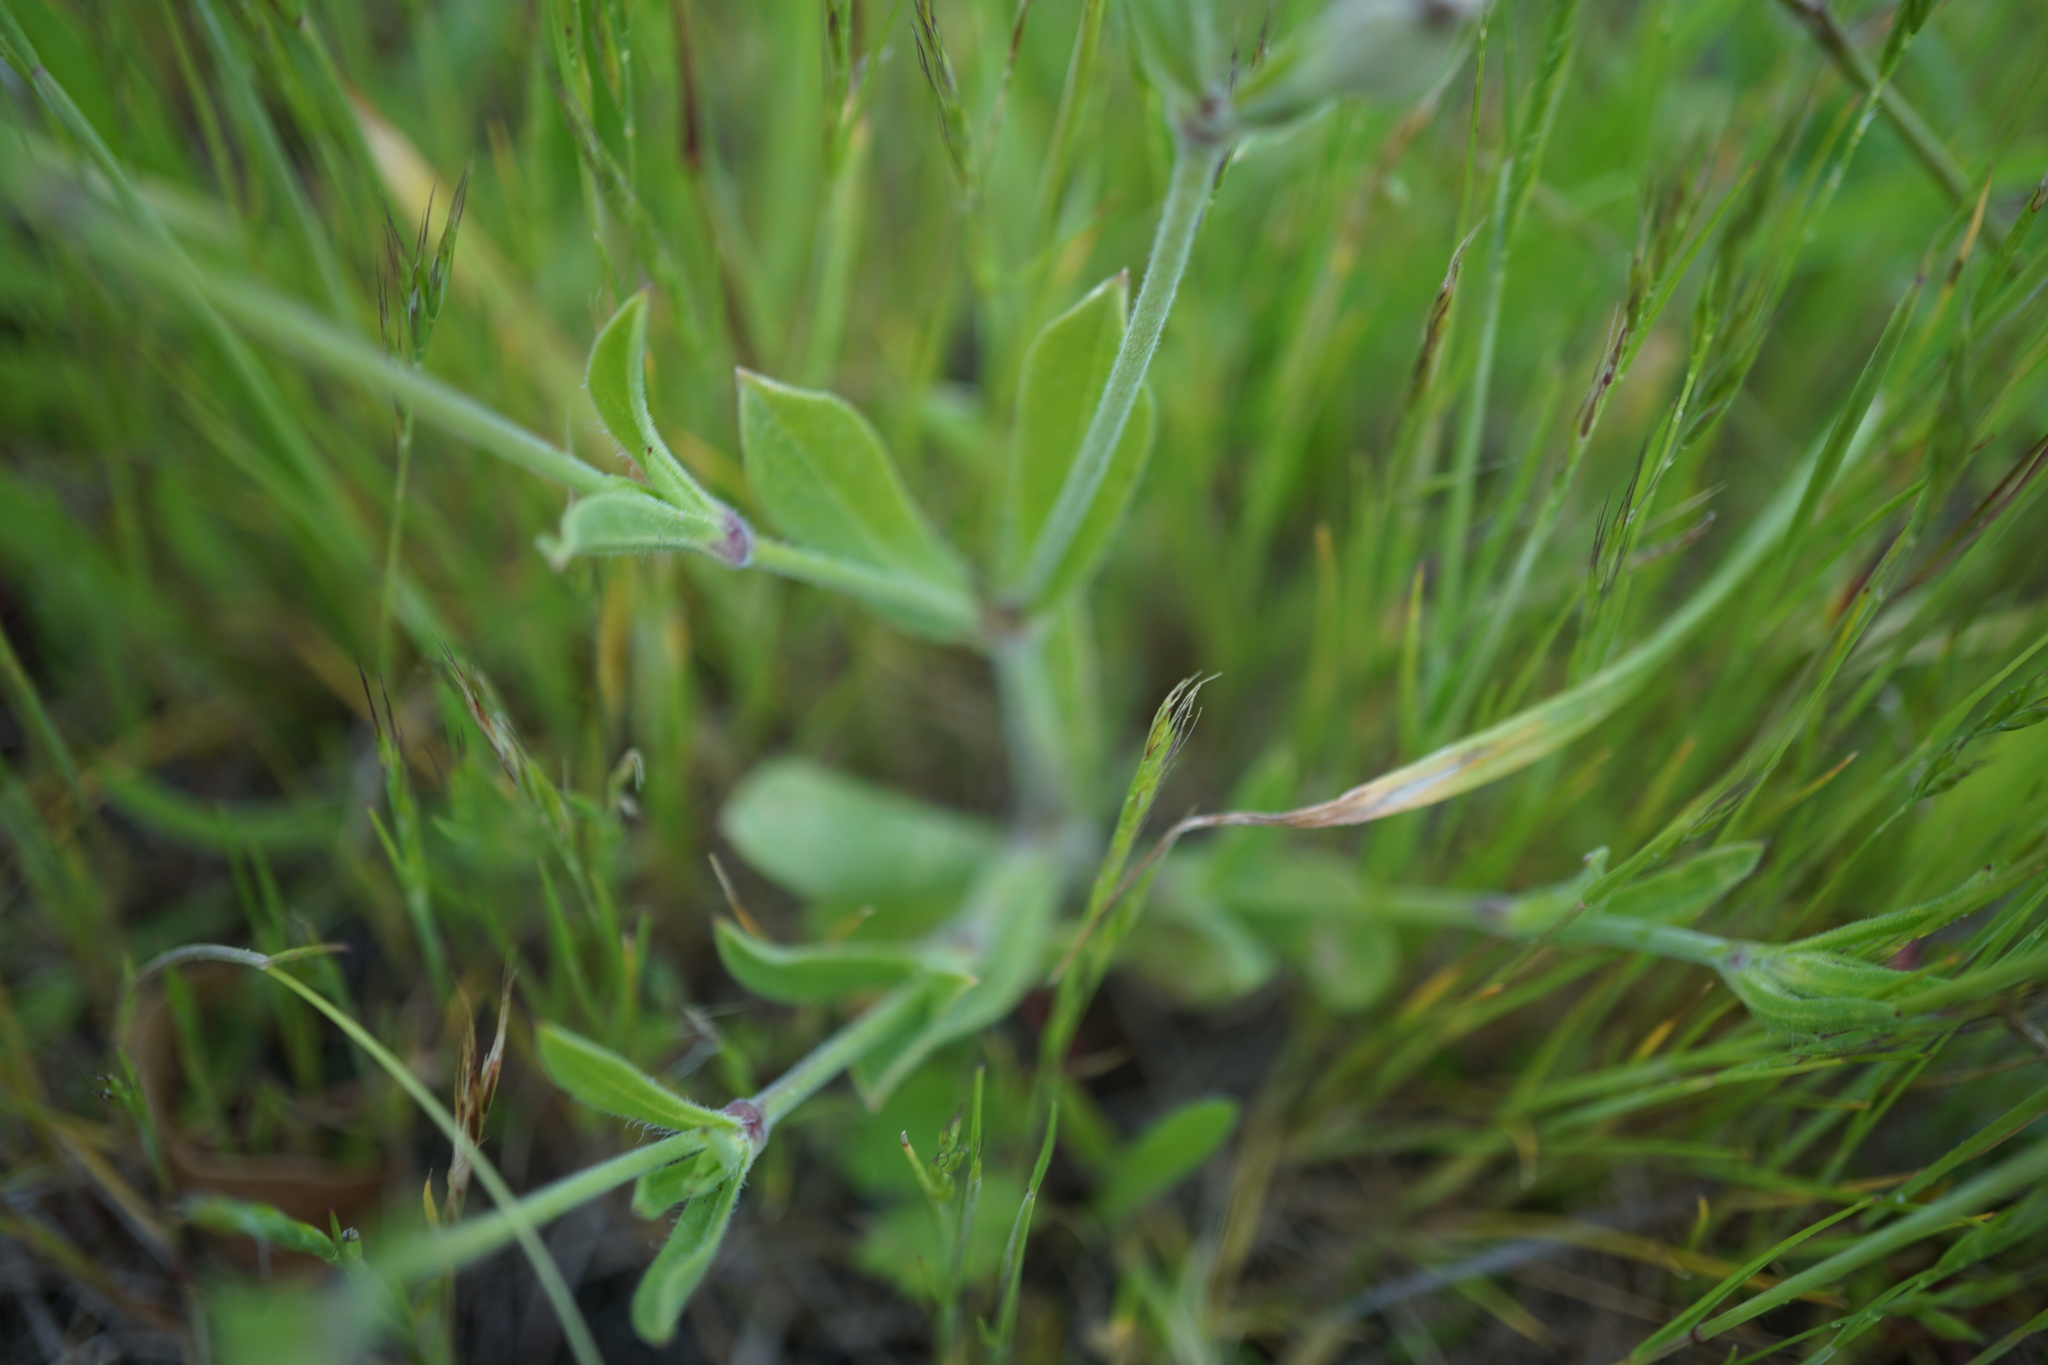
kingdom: Plantae
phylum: Tracheophyta
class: Magnoliopsida
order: Caryophyllales
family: Caryophyllaceae
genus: Silene
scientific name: Silene gallica
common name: Small-flowered catchfly
